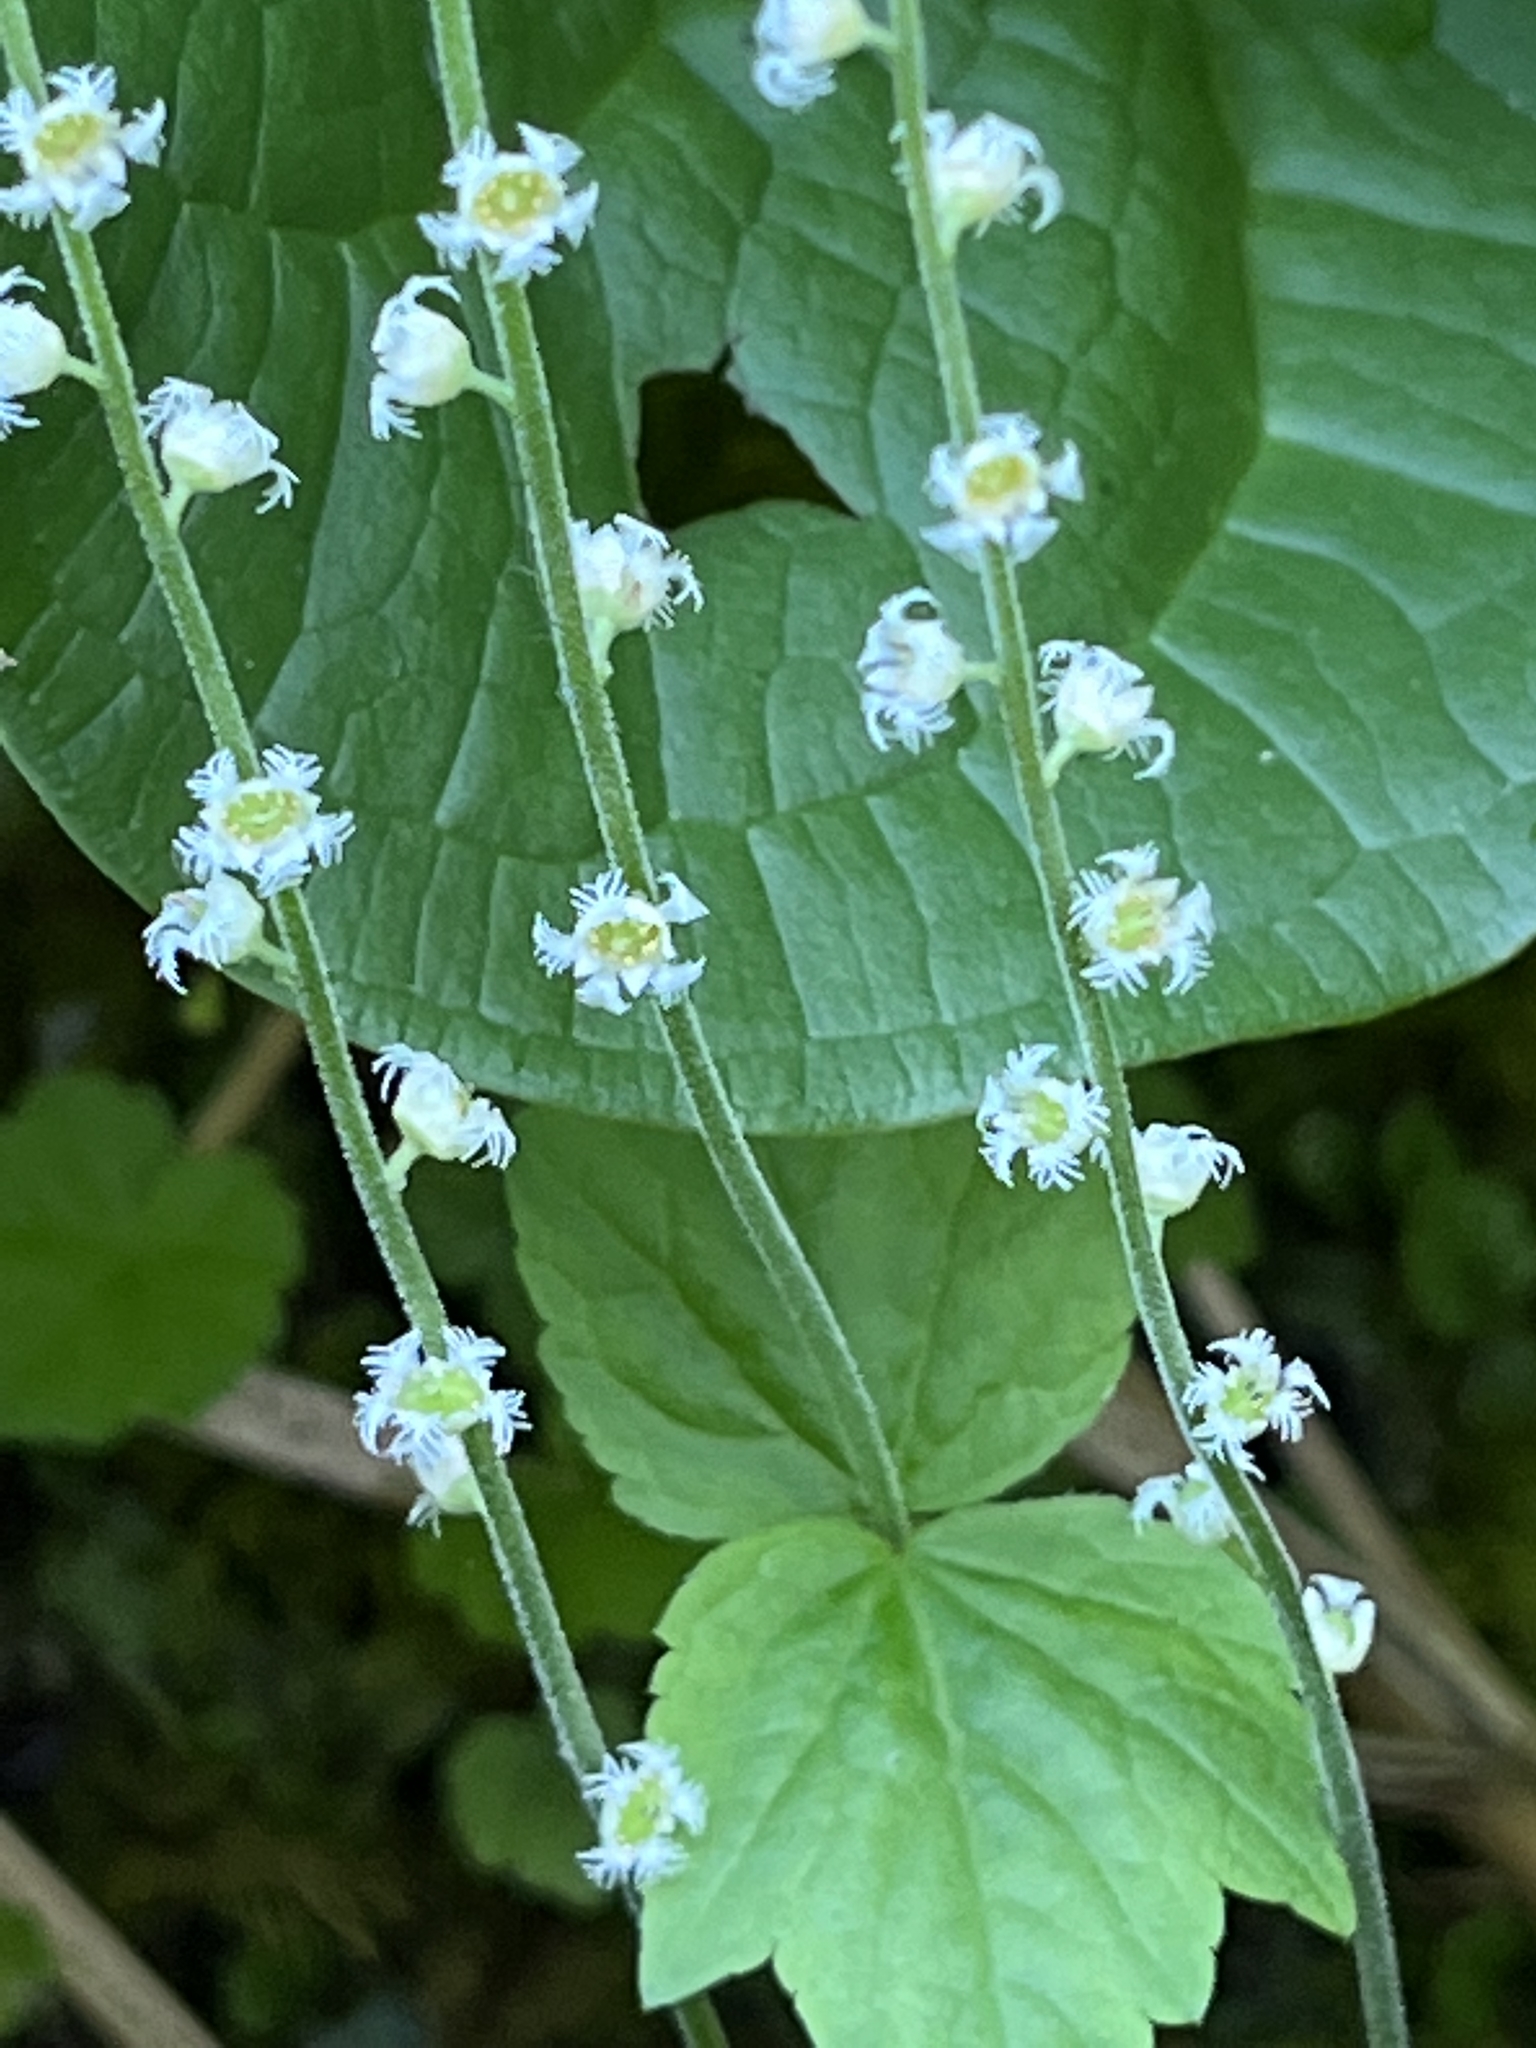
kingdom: Plantae
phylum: Tracheophyta
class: Magnoliopsida
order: Saxifragales
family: Saxifragaceae
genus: Mitella
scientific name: Mitella diphylla
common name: Coolwort
